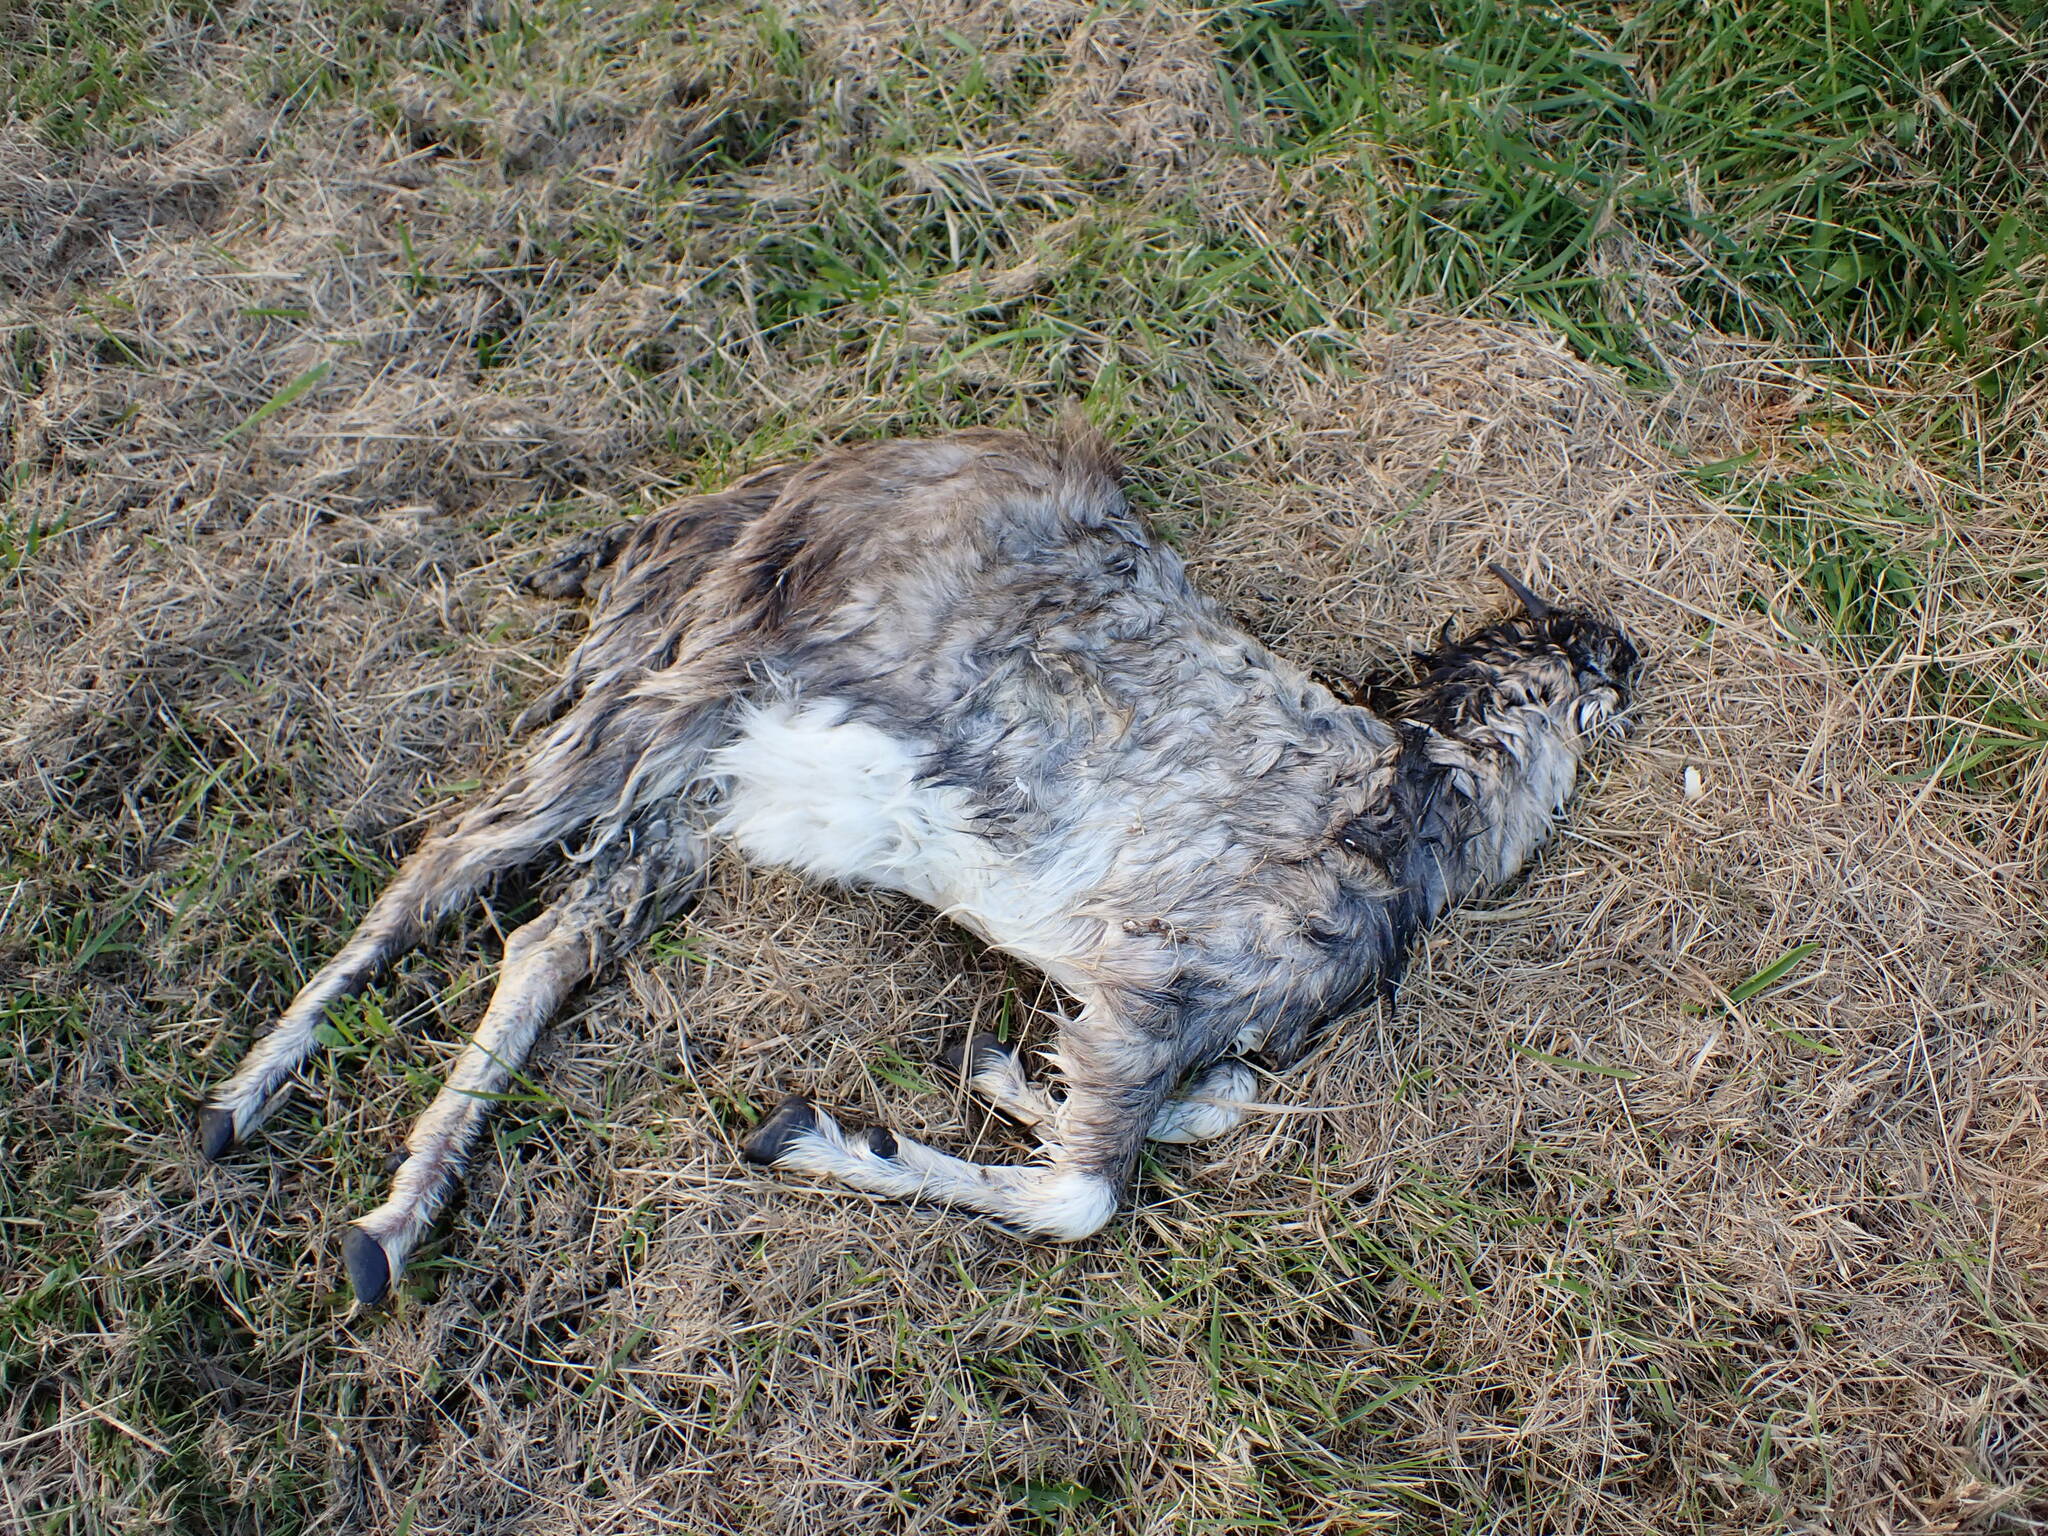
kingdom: Animalia
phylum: Chordata
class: Mammalia
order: Artiodactyla
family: Bovidae
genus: Capra
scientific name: Capra hircus
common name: Domestic goat
